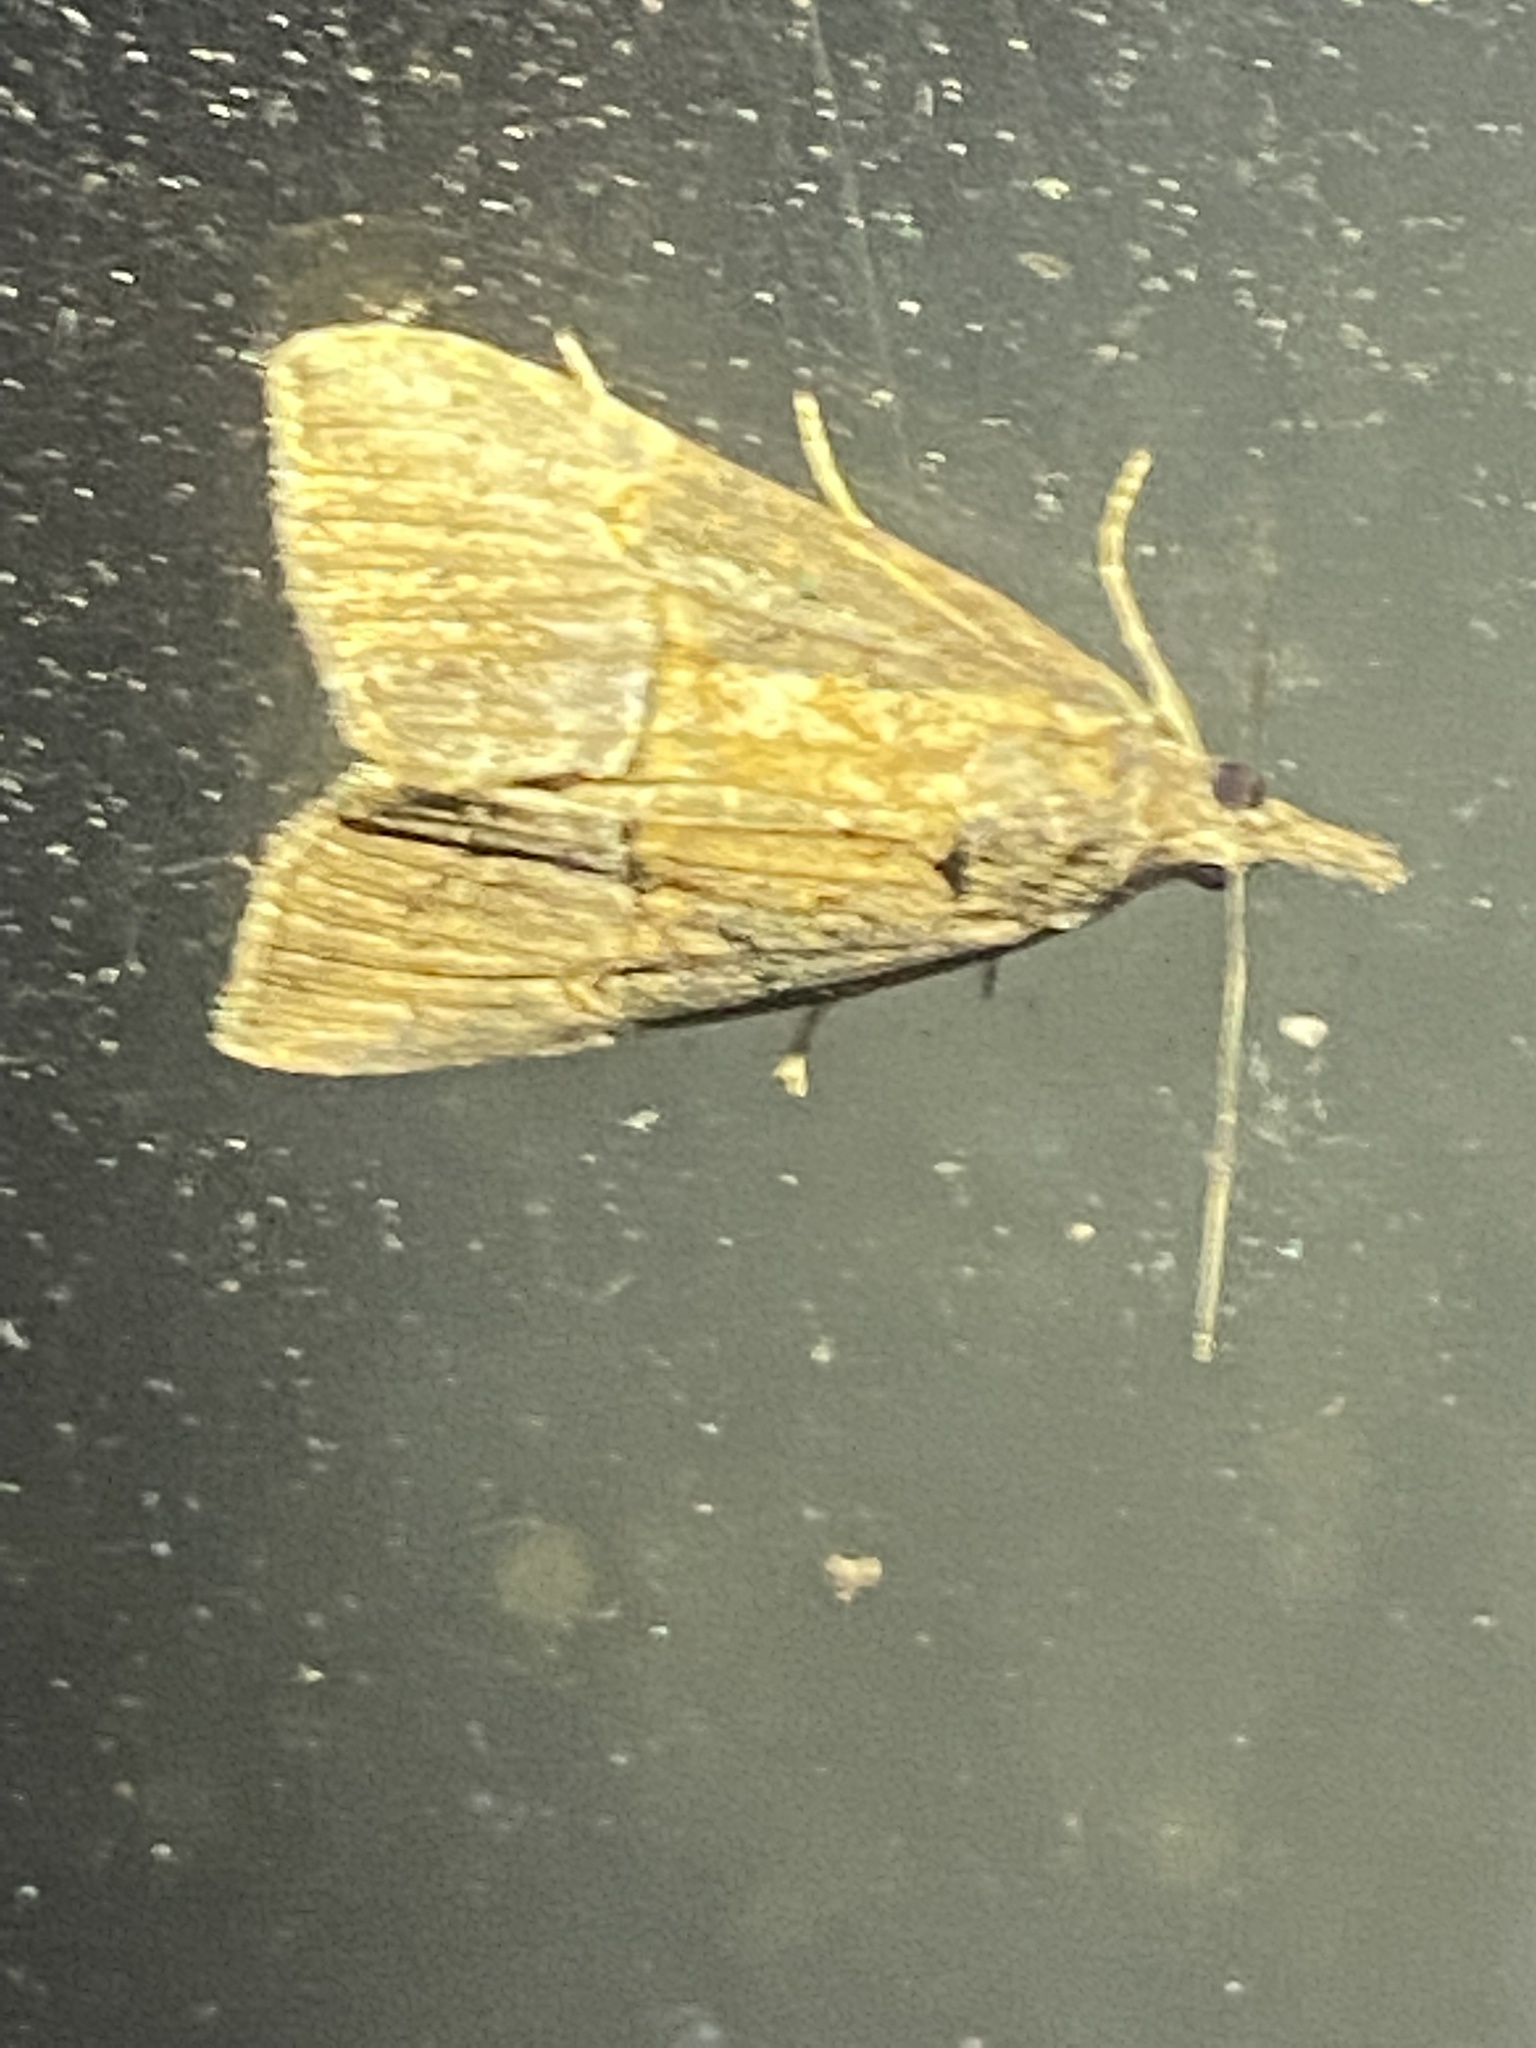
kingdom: Animalia
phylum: Arthropoda
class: Insecta
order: Lepidoptera
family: Erebidae
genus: Hypena
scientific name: Hypena scabra
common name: Green cloverworm
